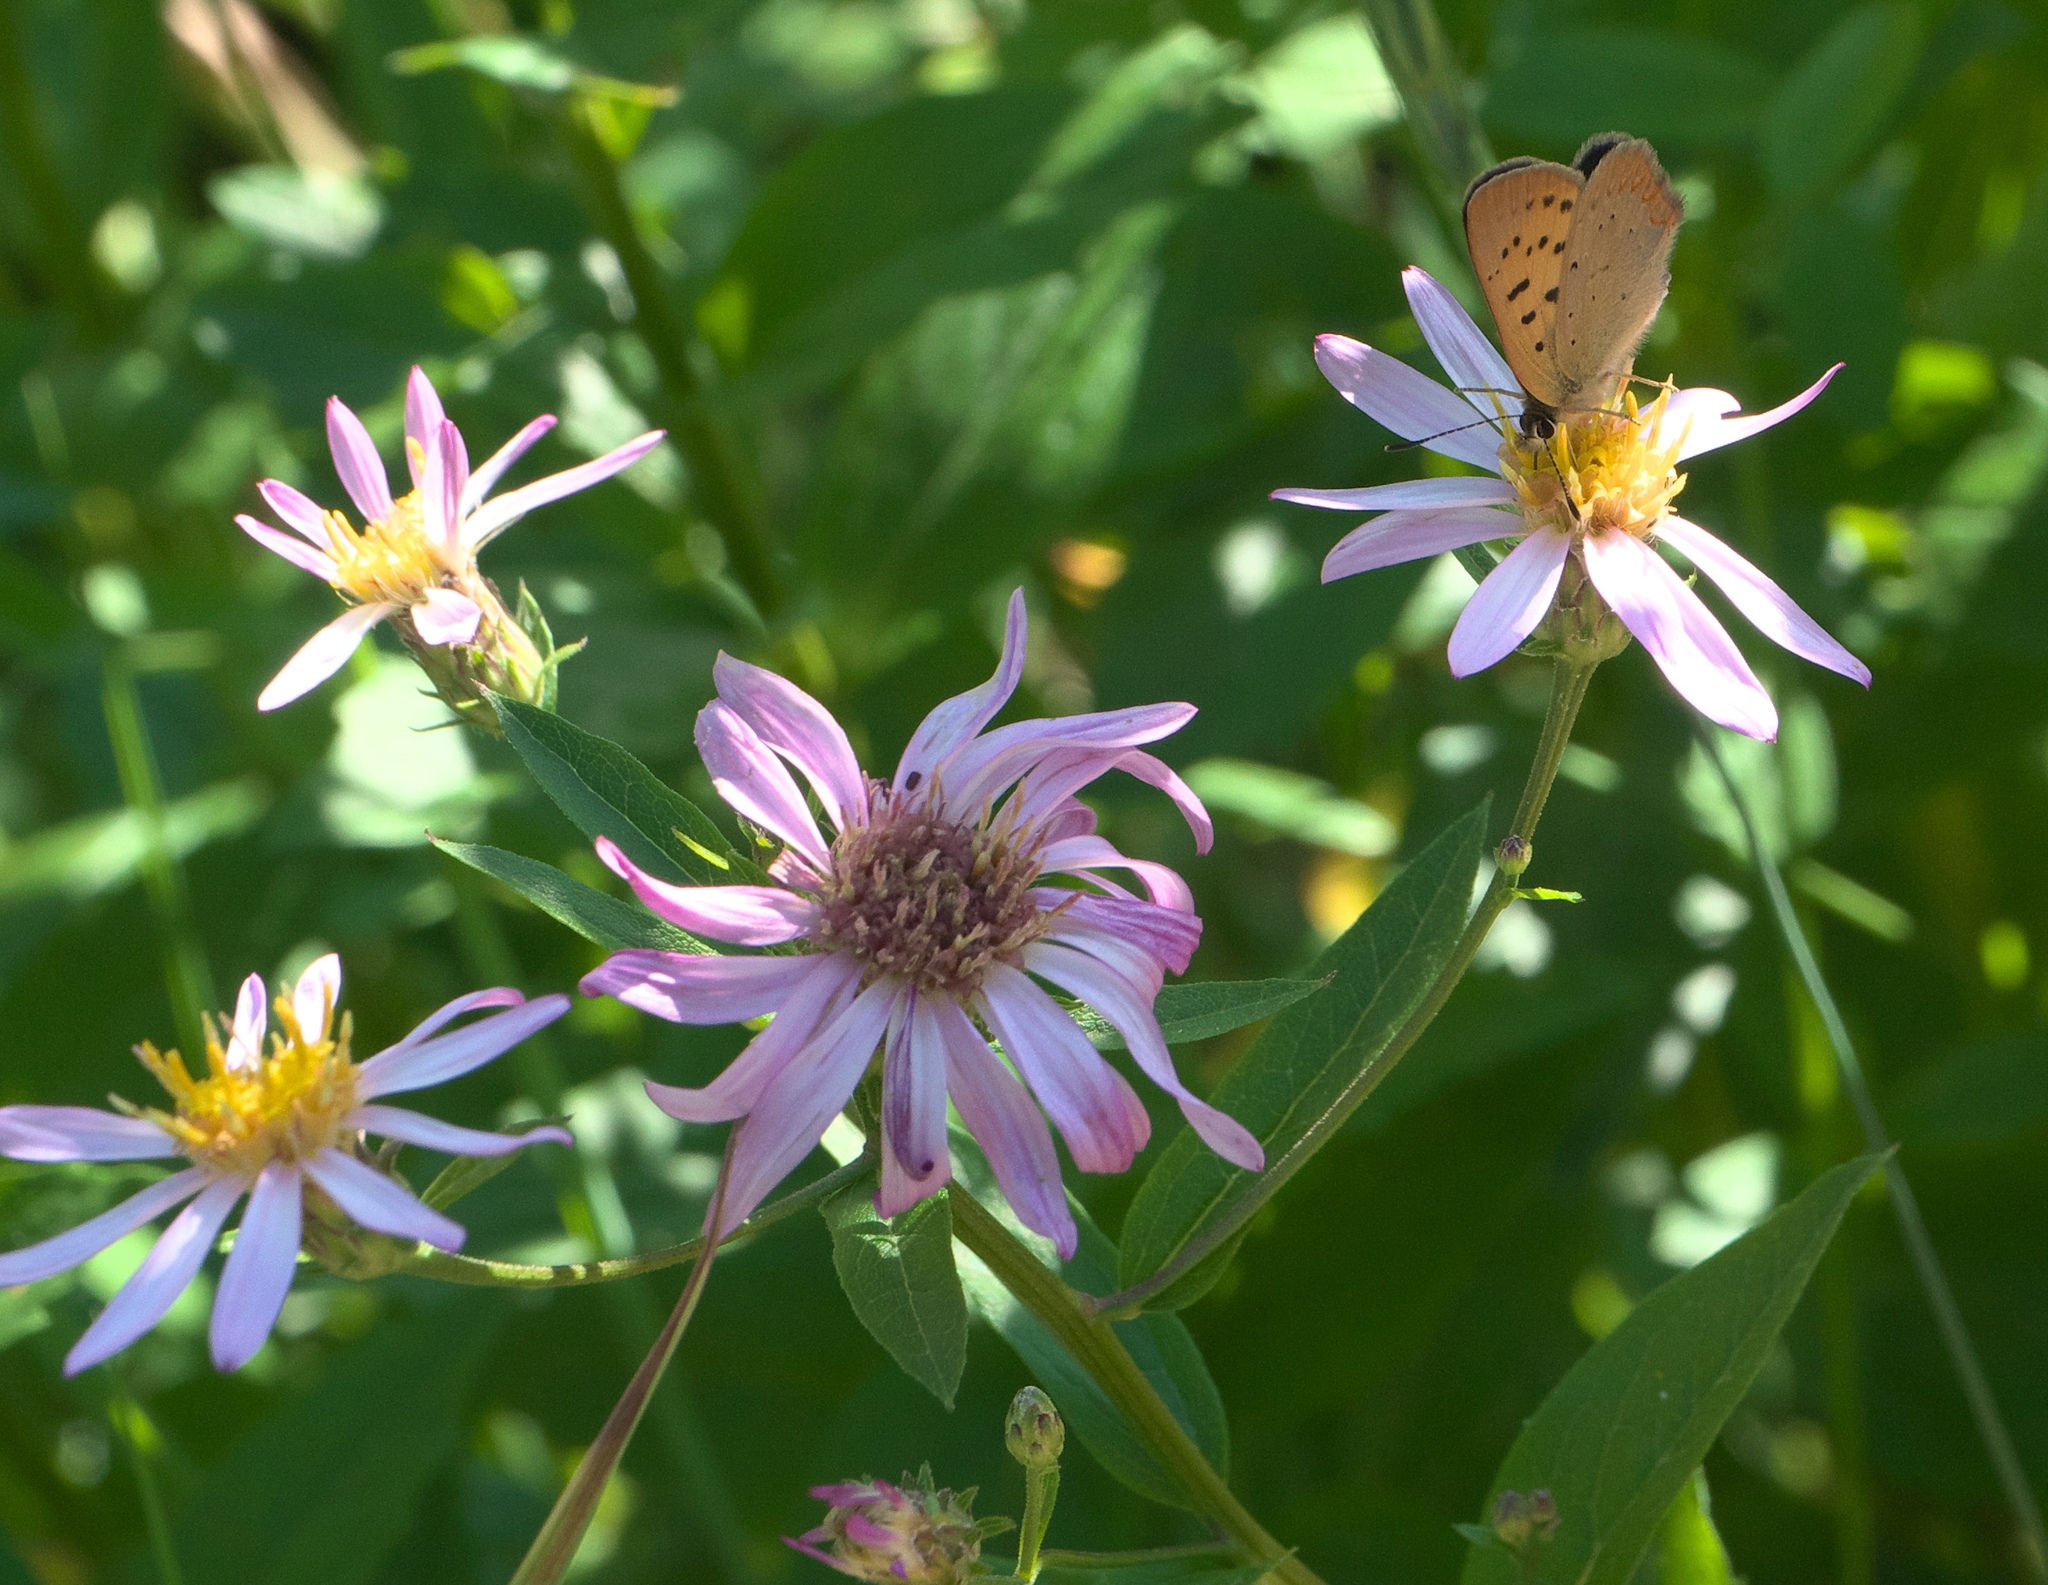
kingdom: Plantae
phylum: Tracheophyta
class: Magnoliopsida
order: Asterales
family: Asteraceae
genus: Eucephalus
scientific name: Eucephalus engelmannii
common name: Engelmann's aster
